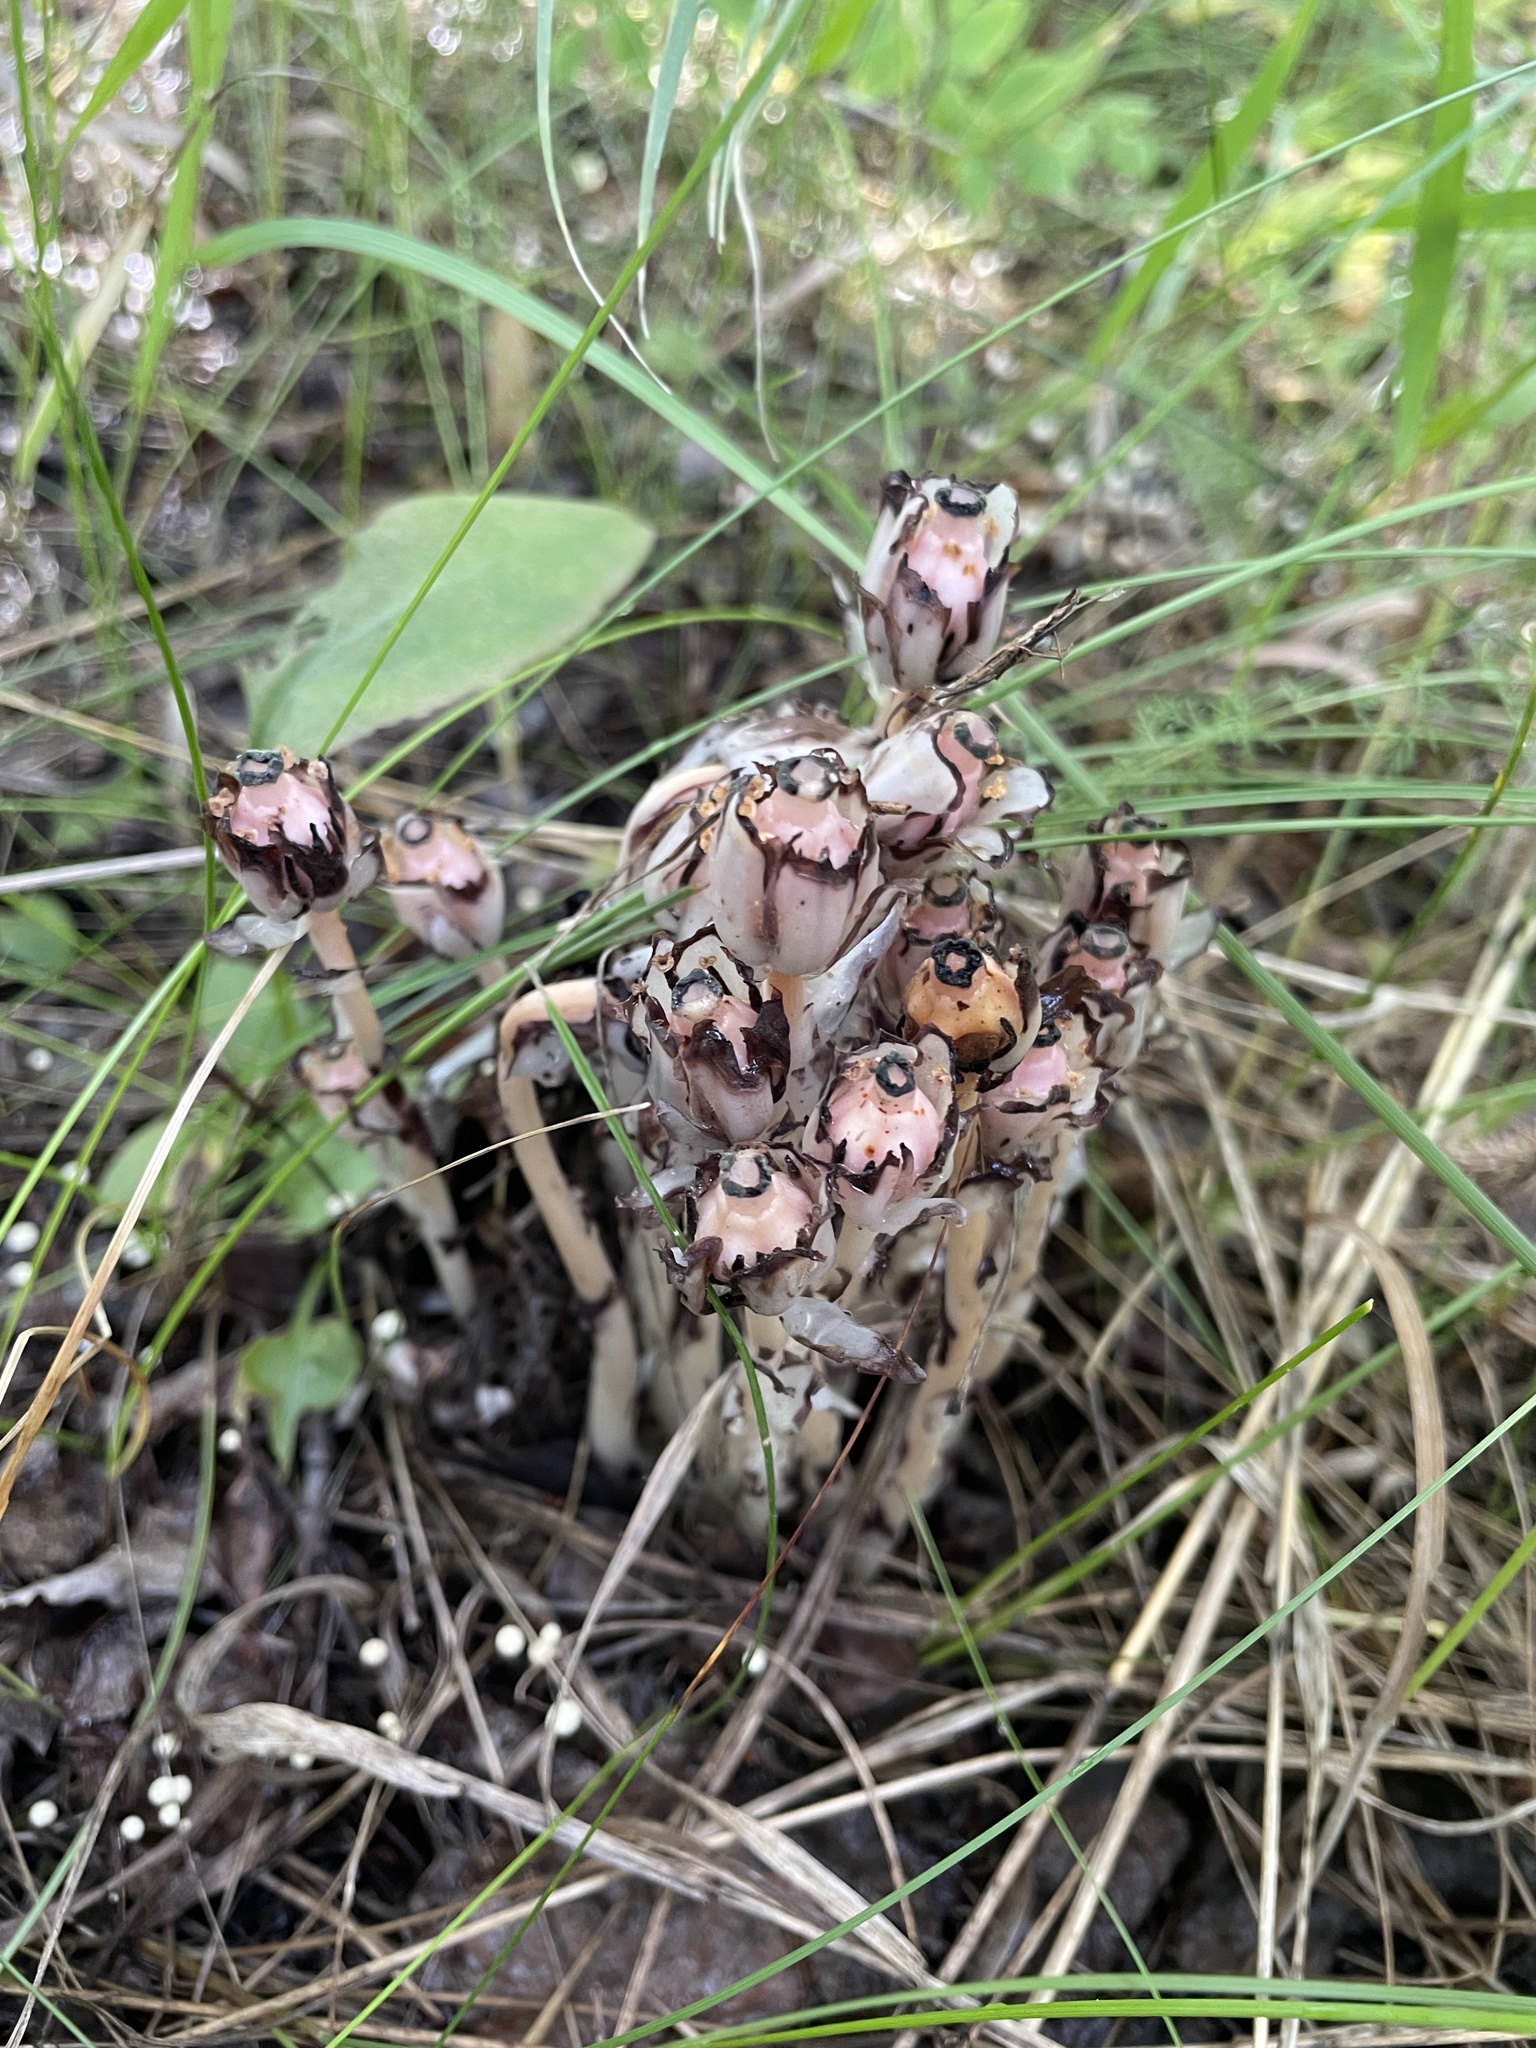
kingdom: Plantae
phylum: Tracheophyta
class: Magnoliopsida
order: Ericales
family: Ericaceae
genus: Monotropa
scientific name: Monotropa uniflora
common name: Convulsion root
